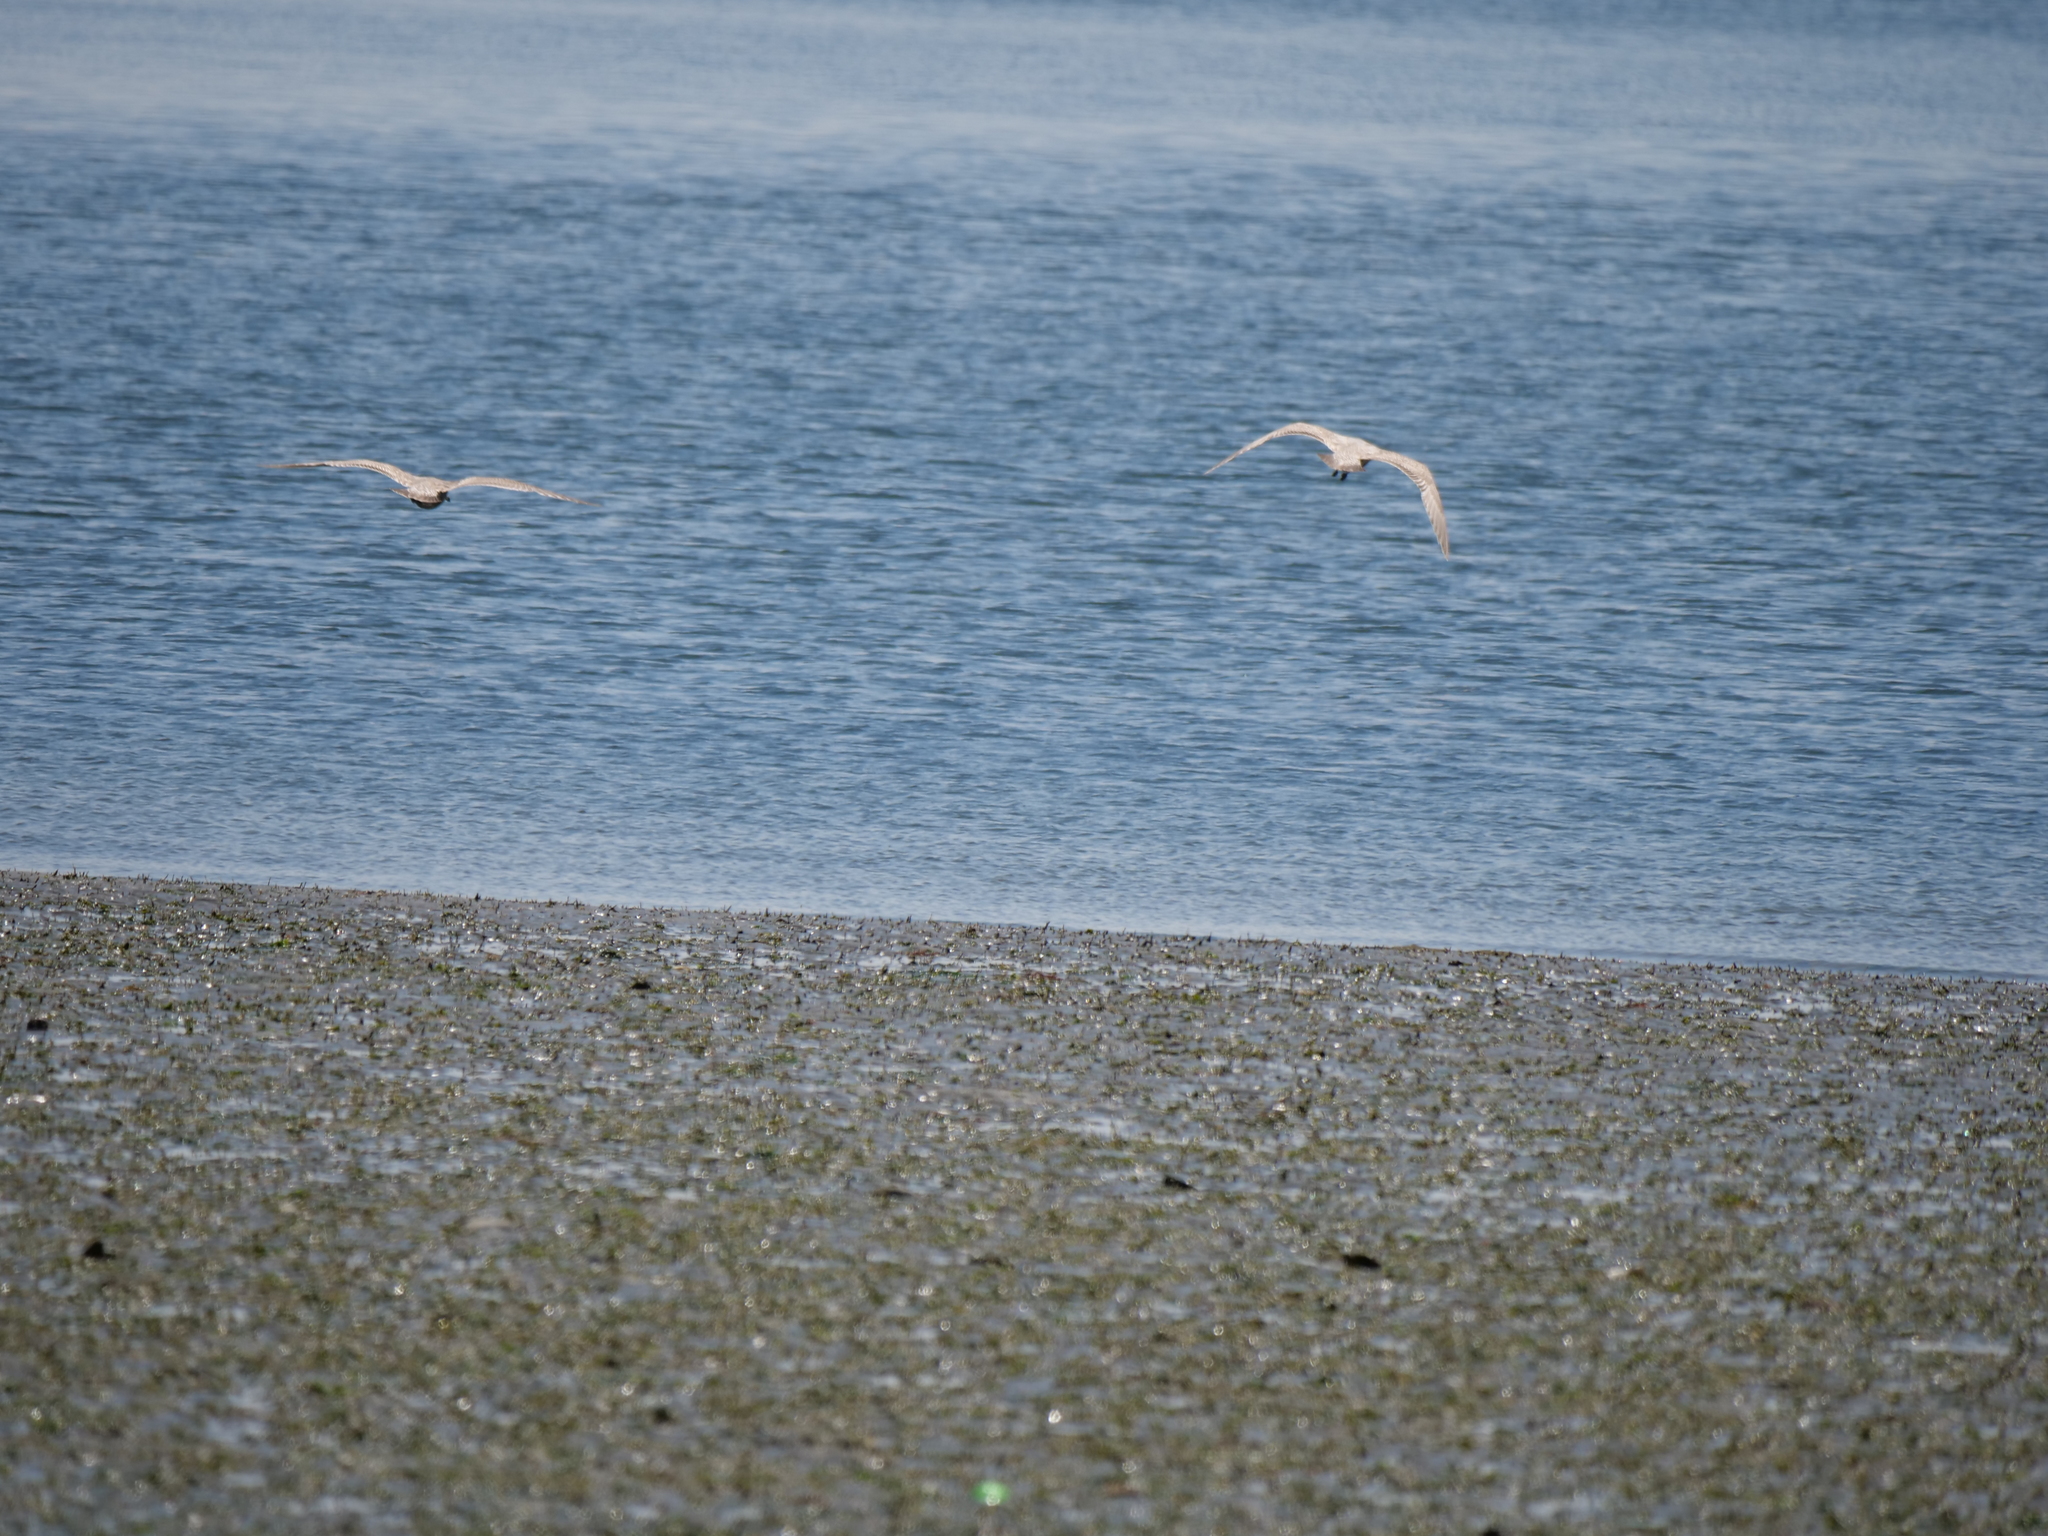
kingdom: Plantae
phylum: Tracheophyta
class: Magnoliopsida
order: Ericales
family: Ericaceae
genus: Gaultheria
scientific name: Gaultheria shallon
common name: Shallon
